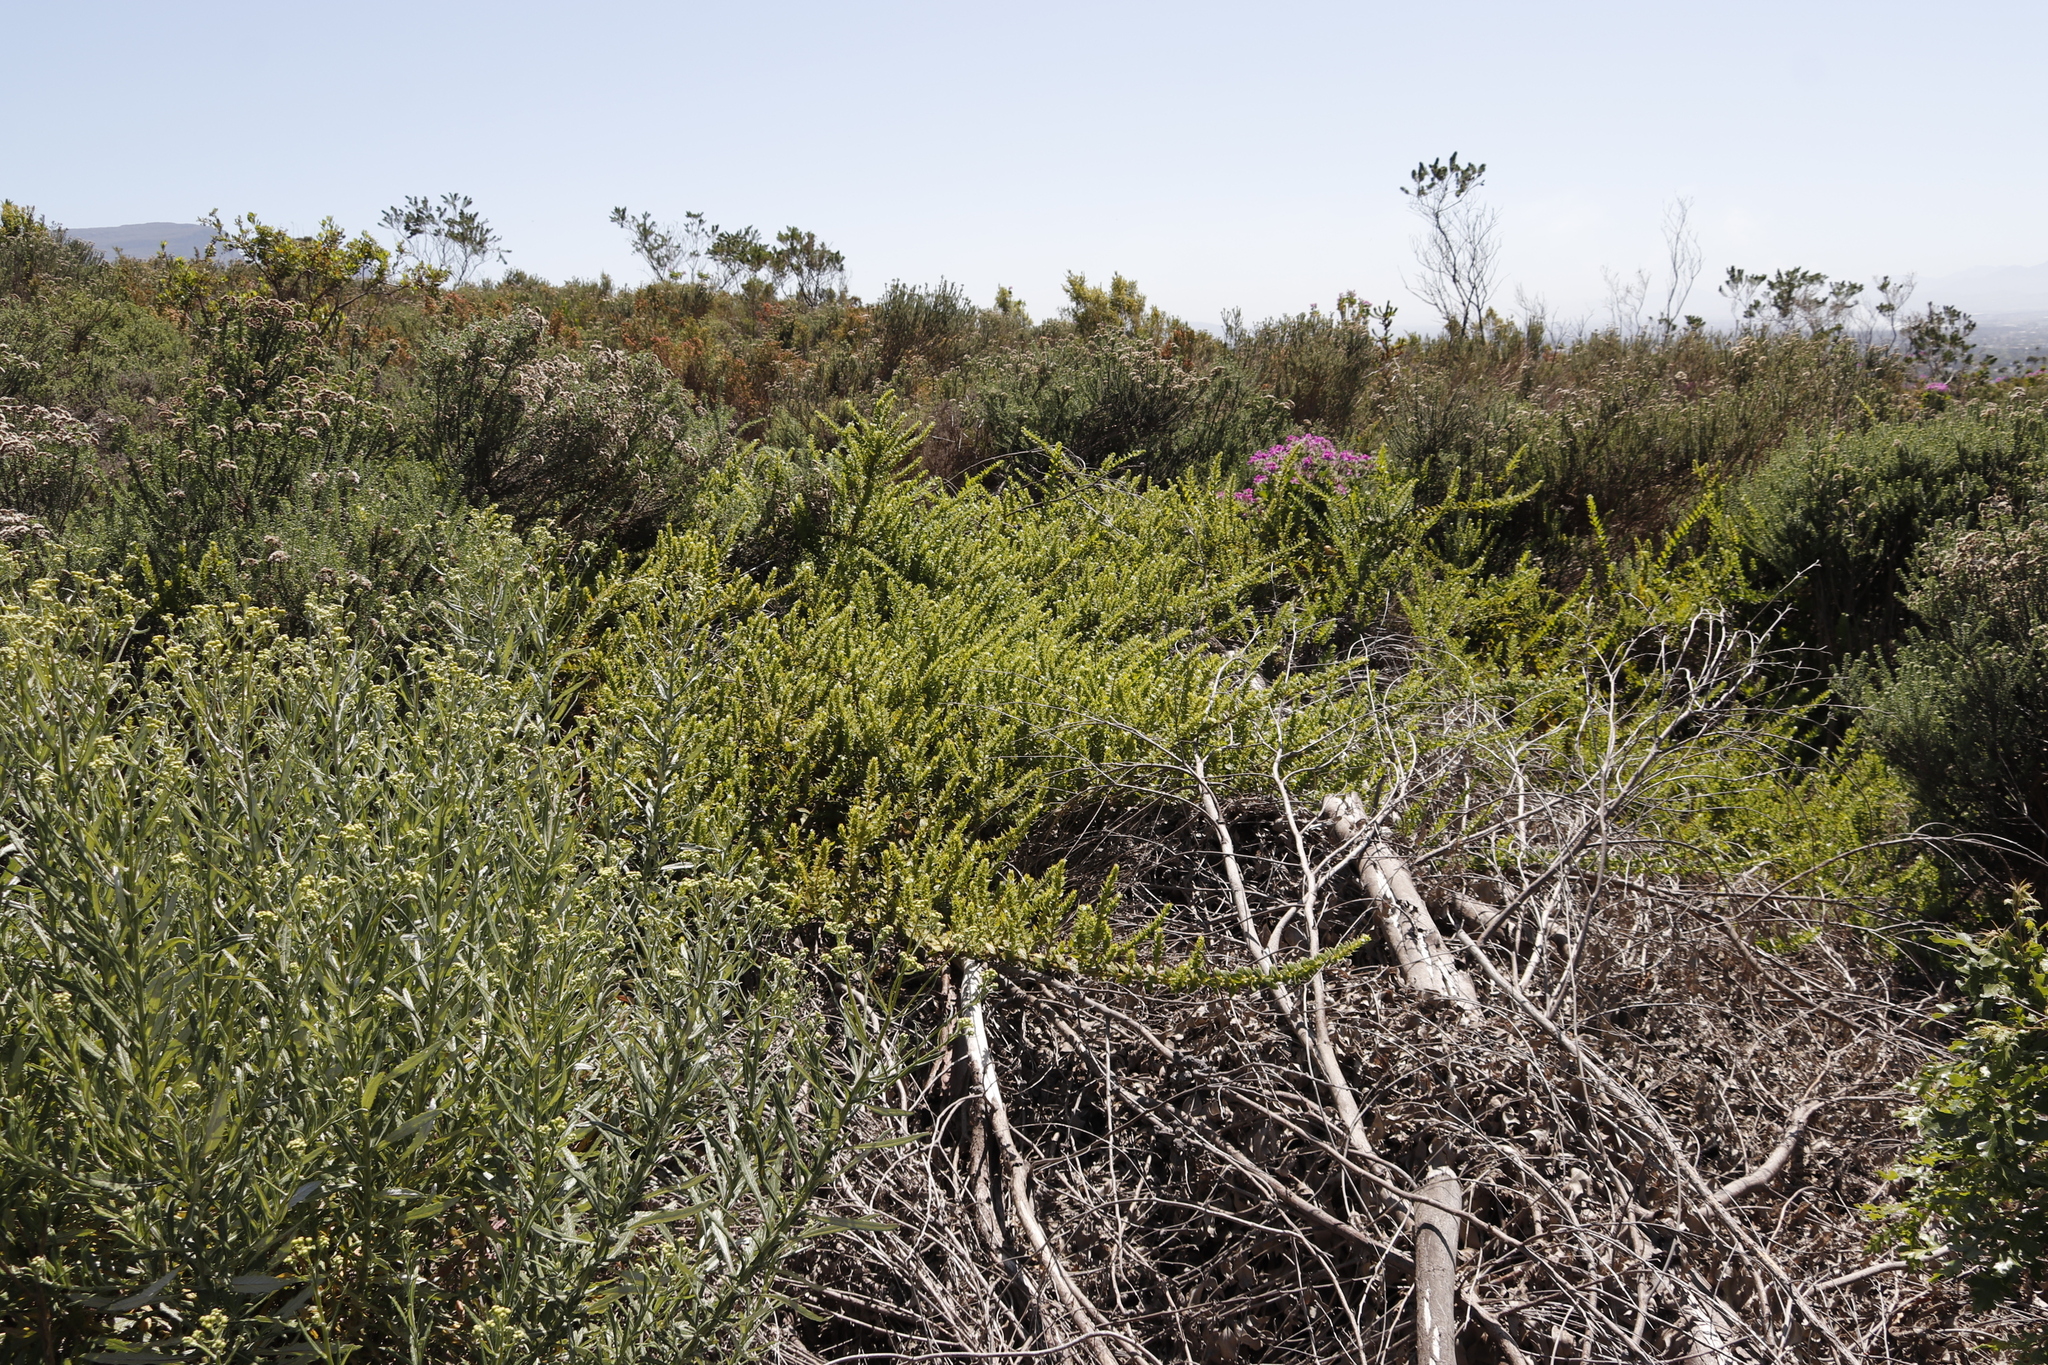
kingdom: Plantae
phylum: Tracheophyta
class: Magnoliopsida
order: Lamiales
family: Scrophulariaceae
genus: Oftia
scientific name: Oftia africana
